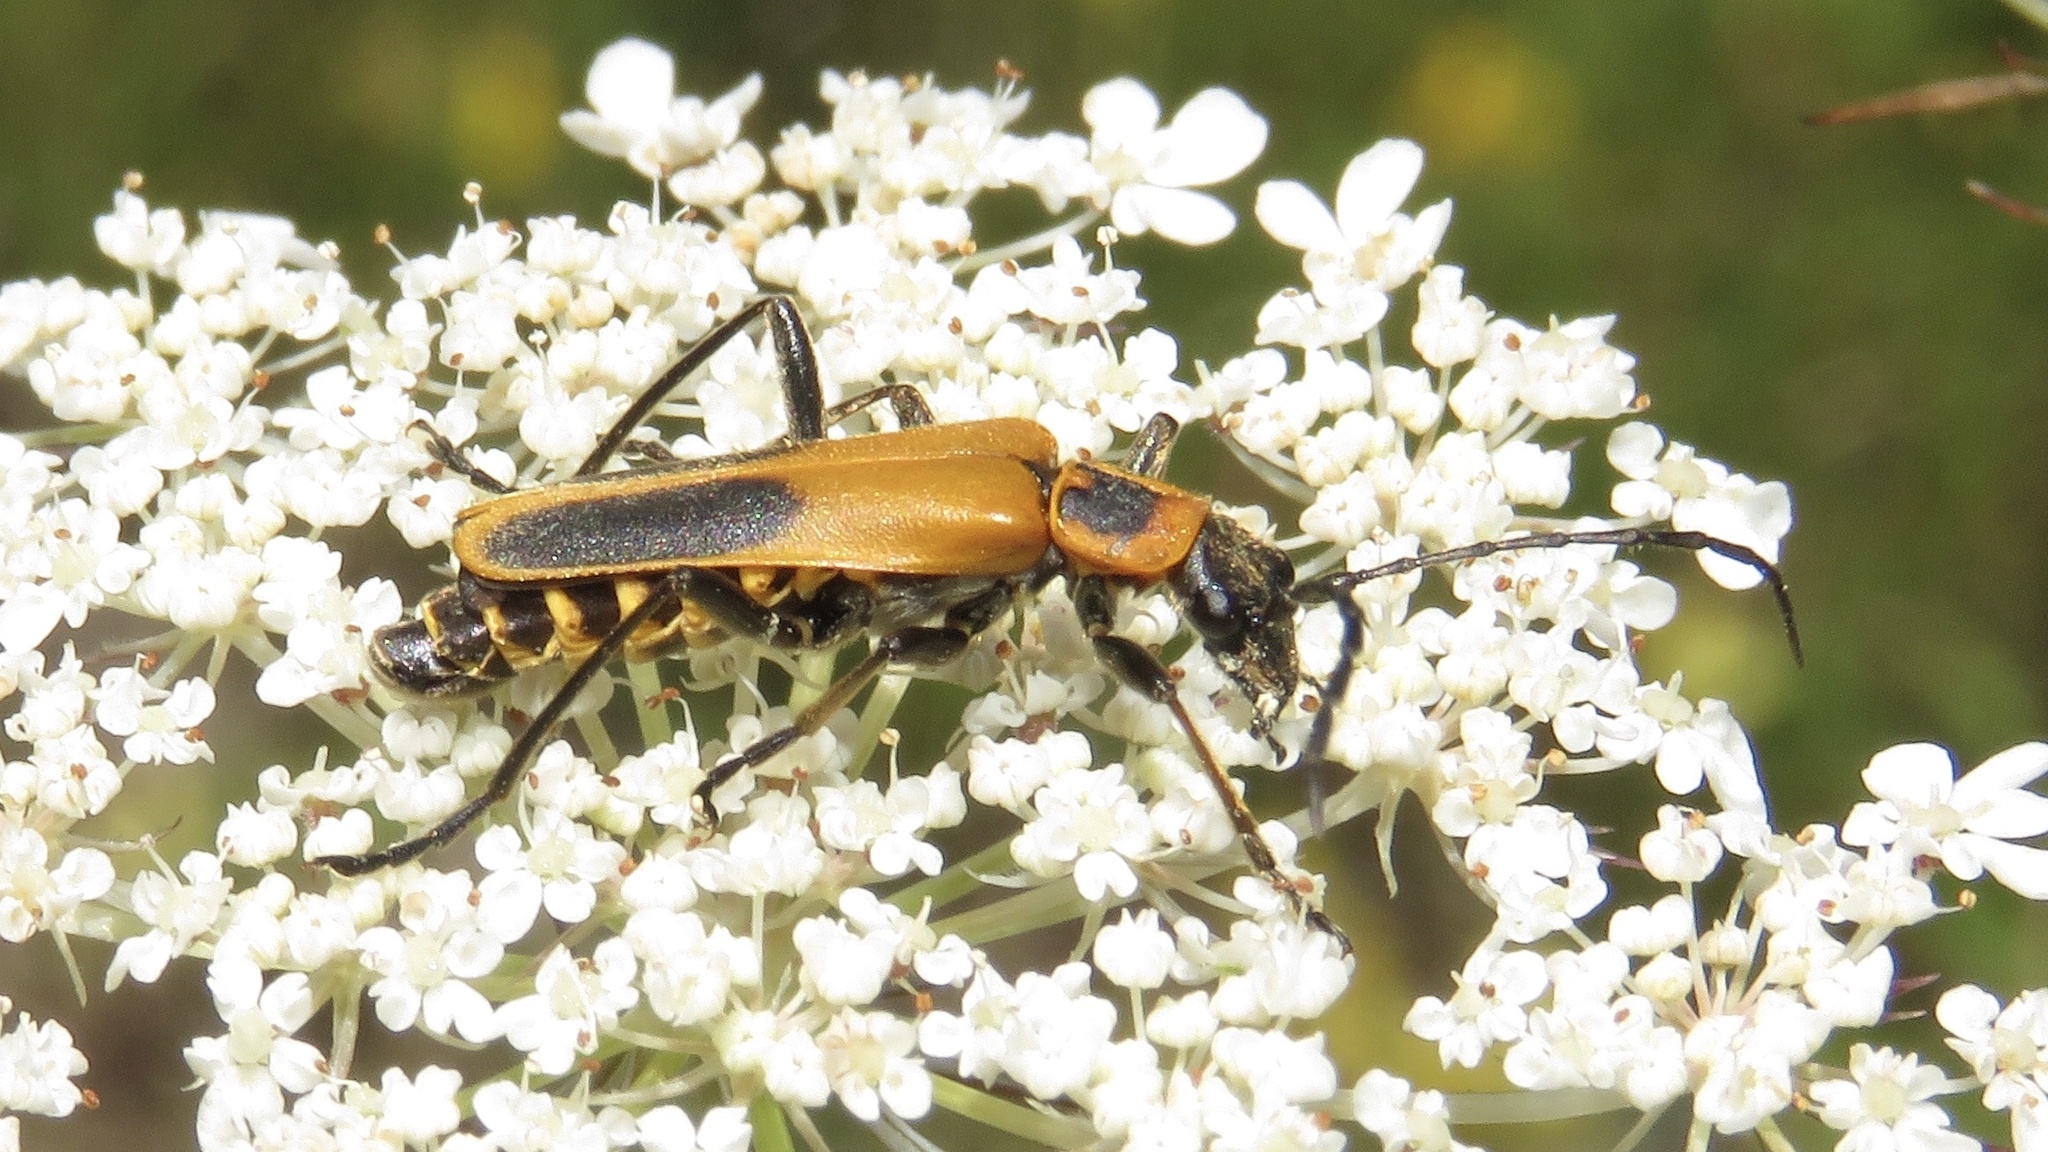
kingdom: Animalia
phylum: Arthropoda
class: Insecta
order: Coleoptera
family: Cantharidae
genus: Chauliognathus
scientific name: Chauliognathus pensylvanicus
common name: Goldenrod soldier beetle
